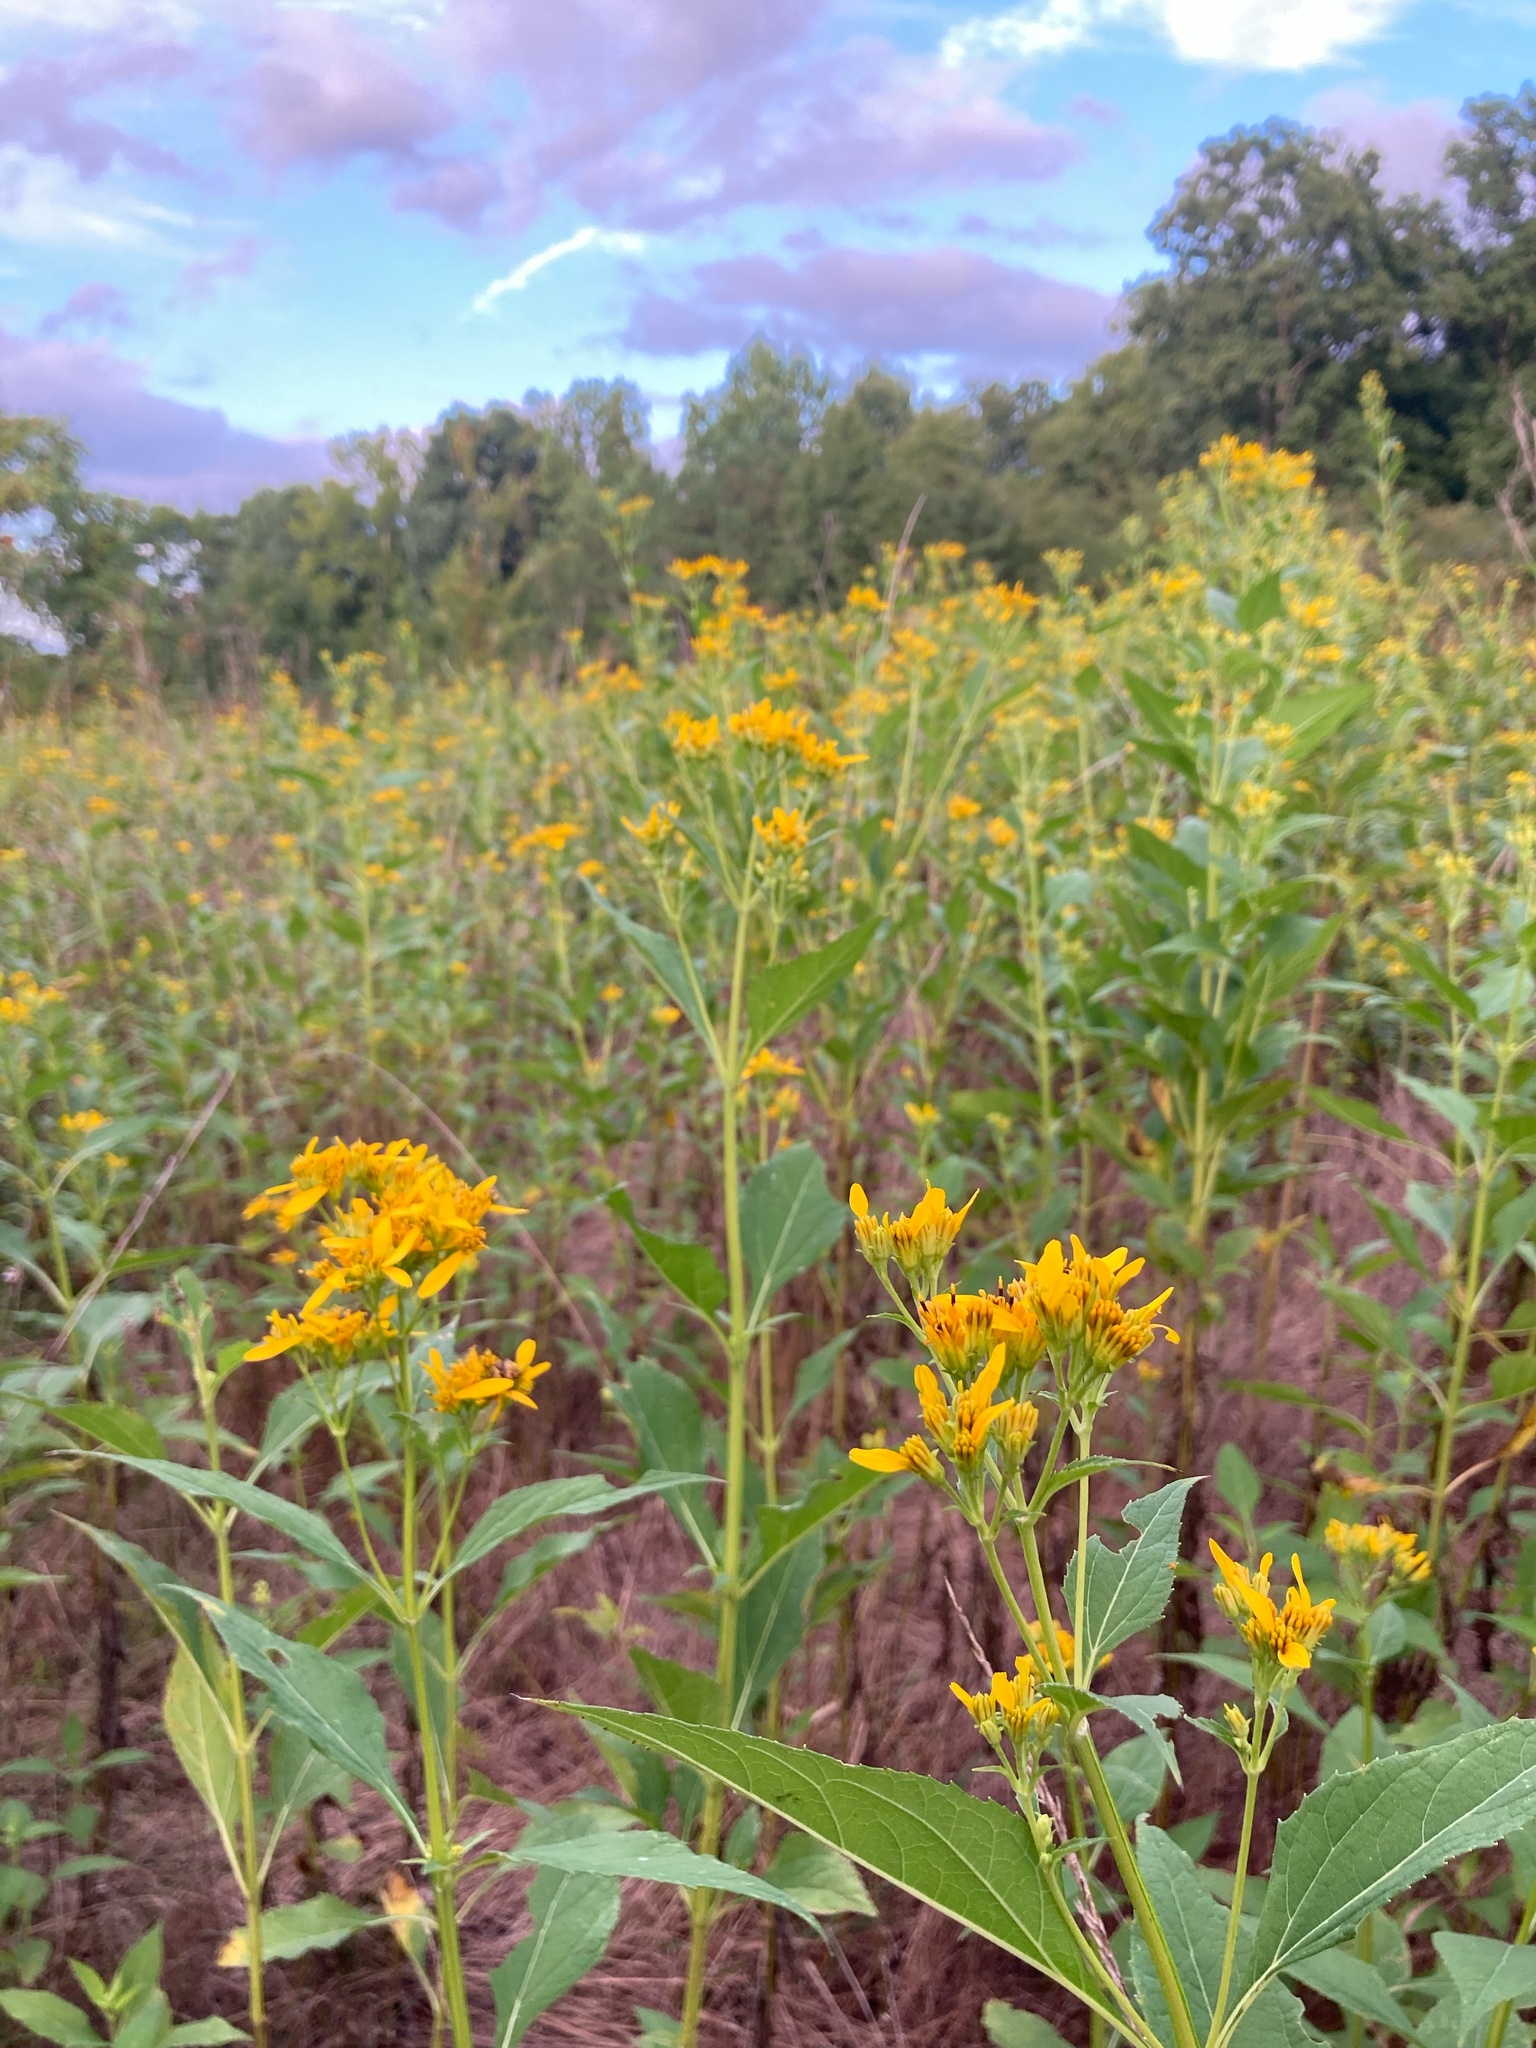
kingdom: Plantae
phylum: Tracheophyta
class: Magnoliopsida
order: Asterales
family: Asteraceae
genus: Verbesina
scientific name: Verbesina occidentalis
